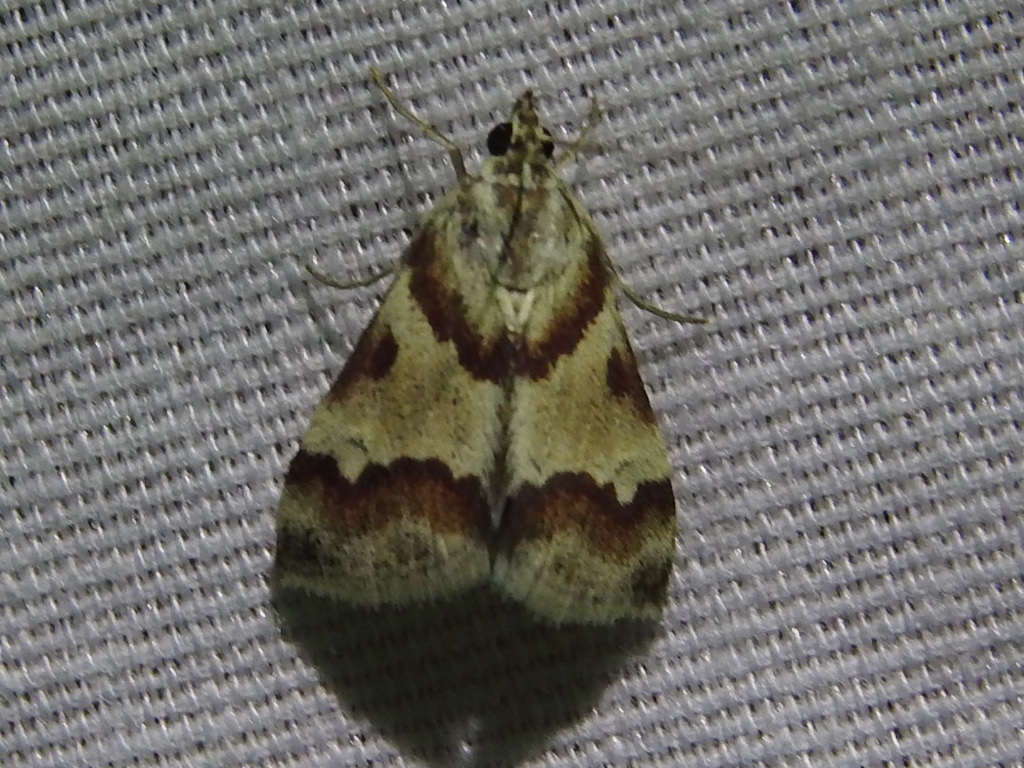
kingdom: Animalia
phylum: Arthropoda
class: Insecta
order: Lepidoptera
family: Crambidae
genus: Noctuelia
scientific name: Noctuelia Mimoschinia rufofascialis
